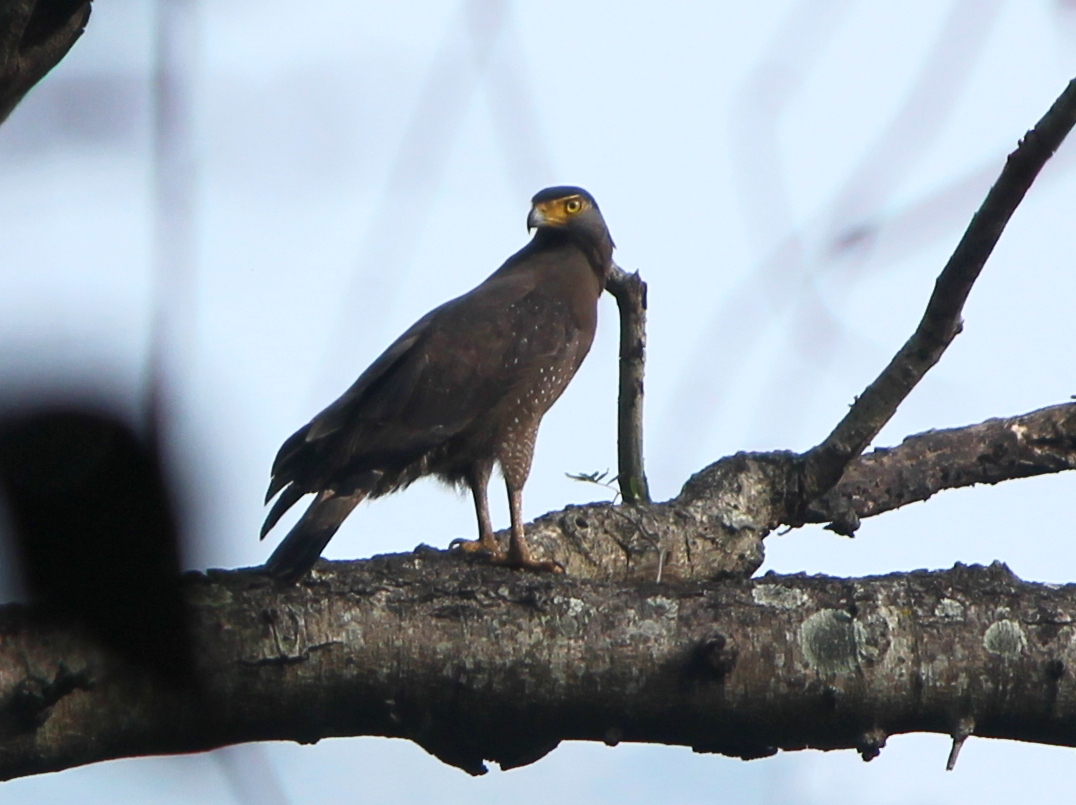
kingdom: Animalia
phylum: Chordata
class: Aves
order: Accipitriformes
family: Accipitridae
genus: Spilornis
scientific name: Spilornis cheela
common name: Crested serpent eagle
